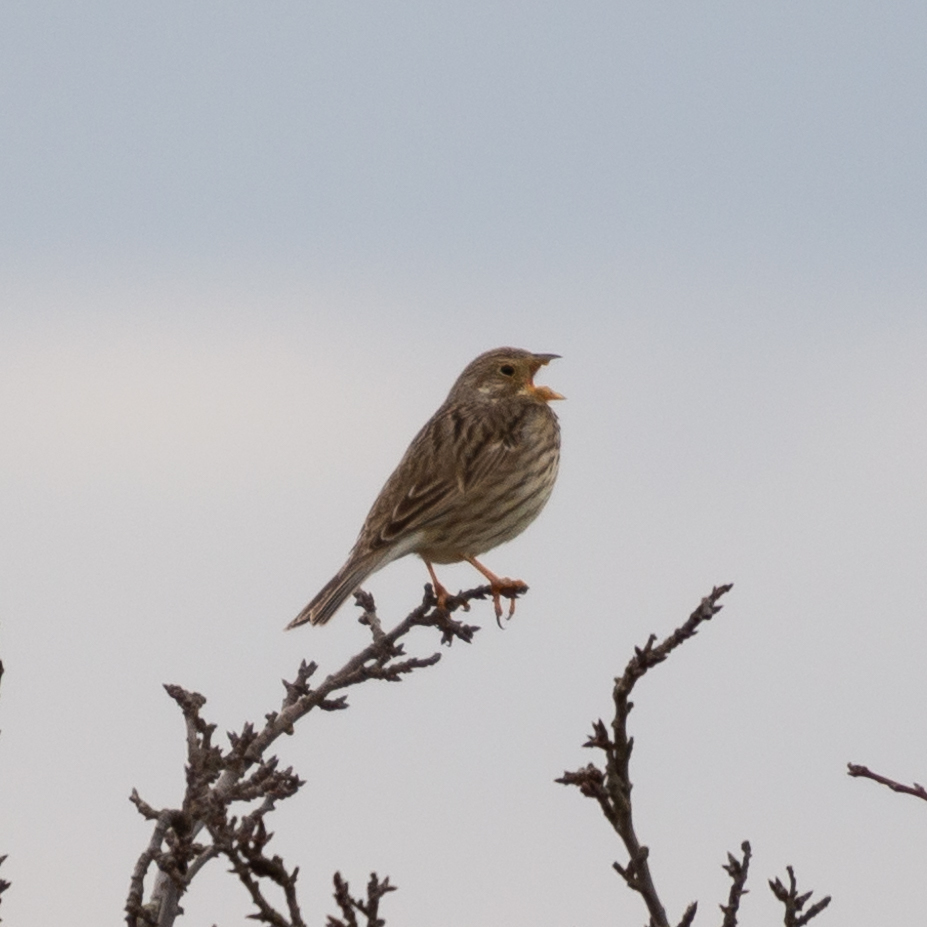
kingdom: Animalia
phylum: Chordata
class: Aves
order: Passeriformes
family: Emberizidae
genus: Emberiza
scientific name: Emberiza calandra
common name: Corn bunting
